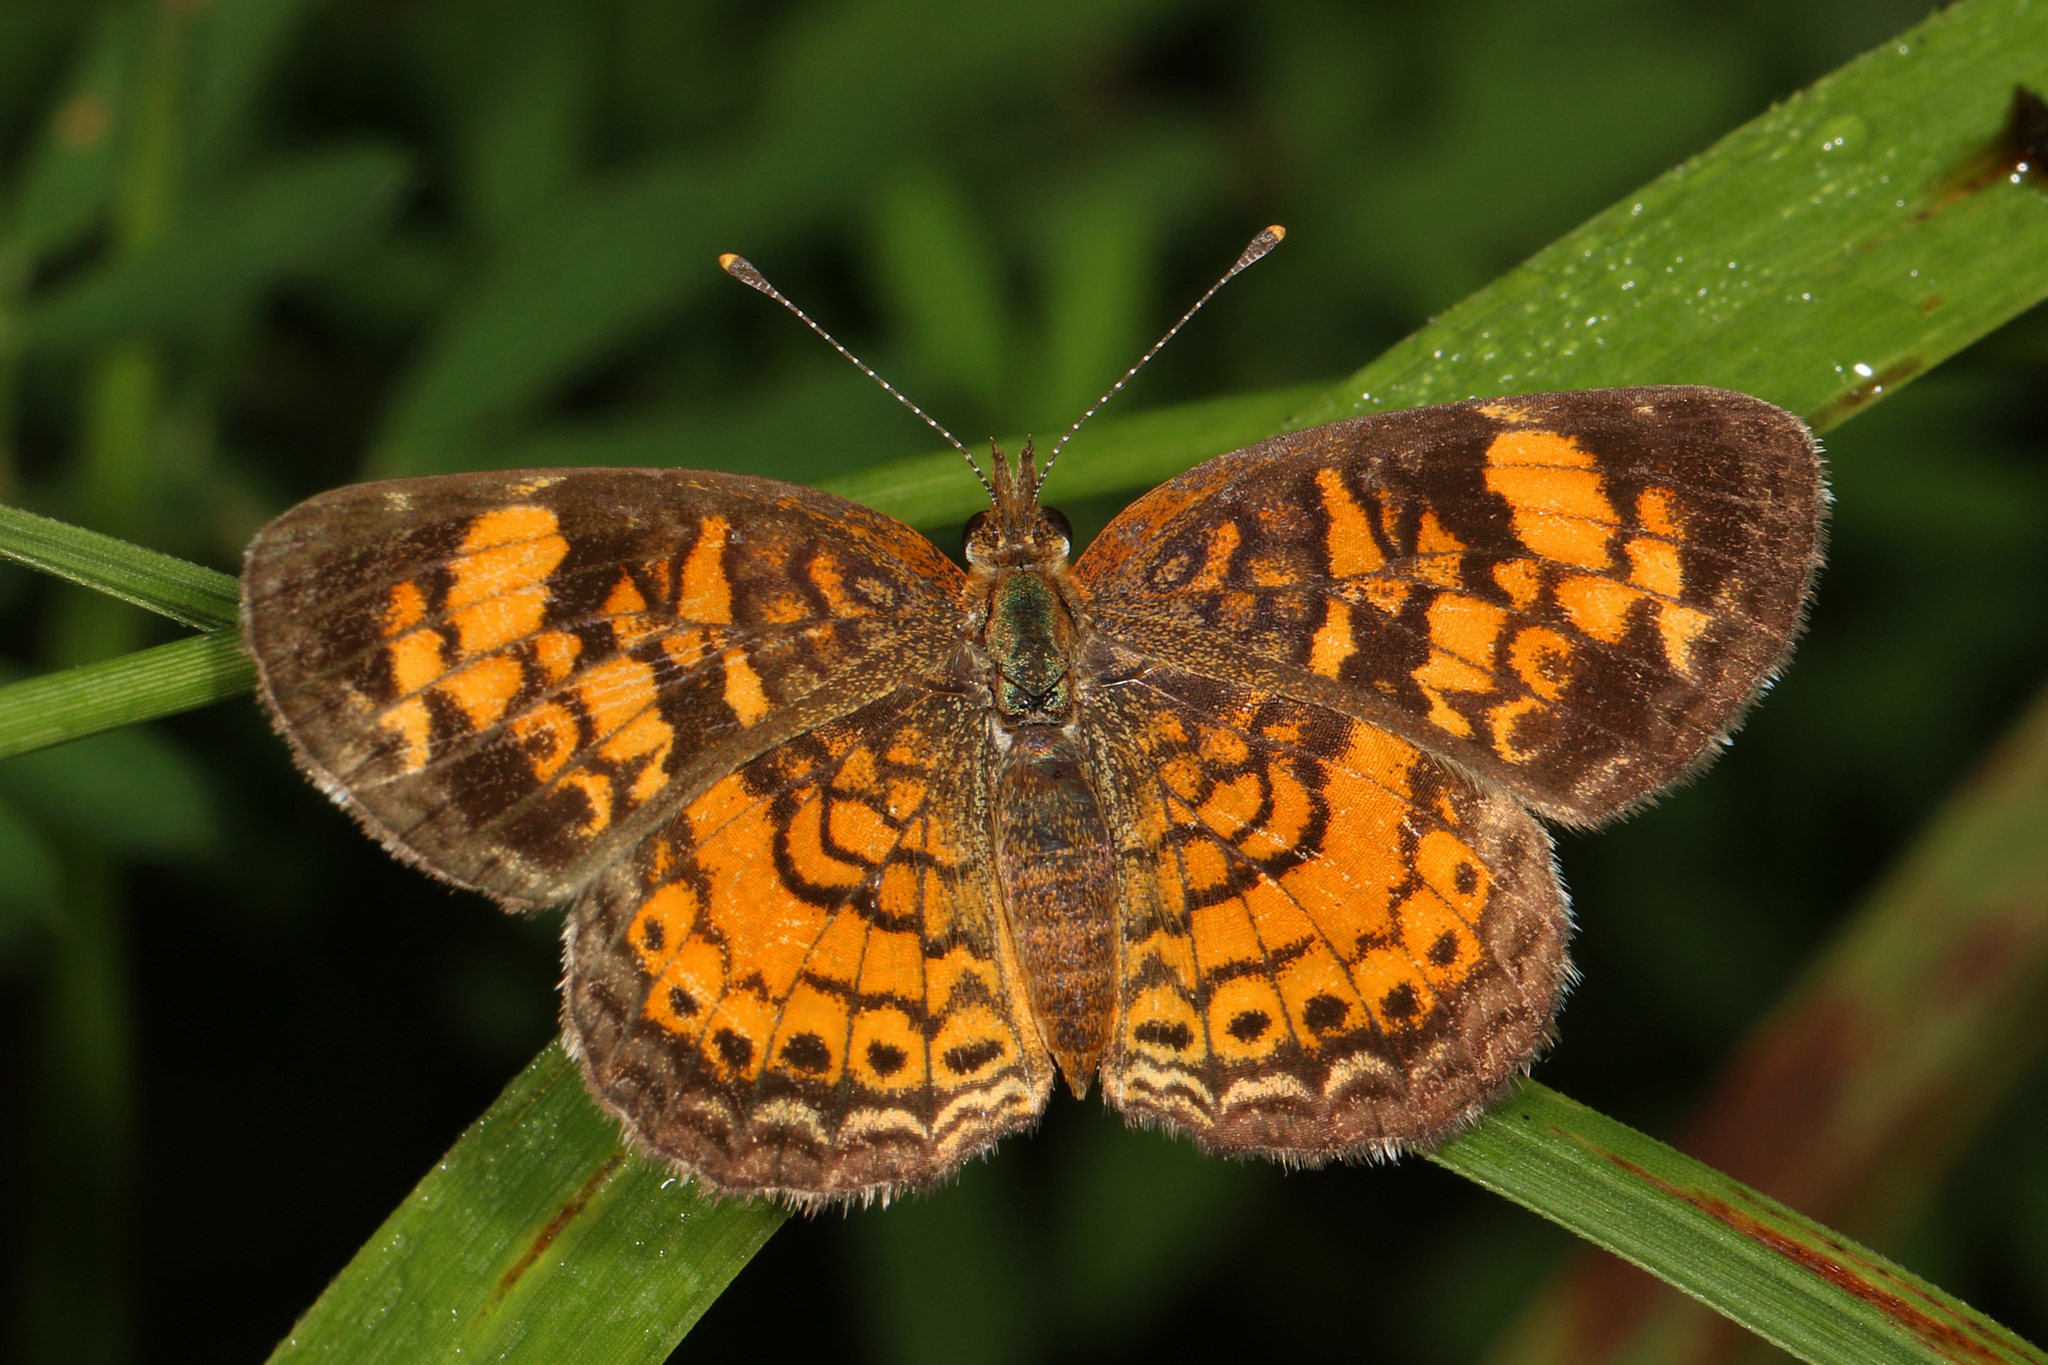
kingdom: Animalia
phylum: Arthropoda
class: Insecta
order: Lepidoptera
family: Nymphalidae
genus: Phyciodes
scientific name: Phyciodes tharos
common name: Pearl crescent
